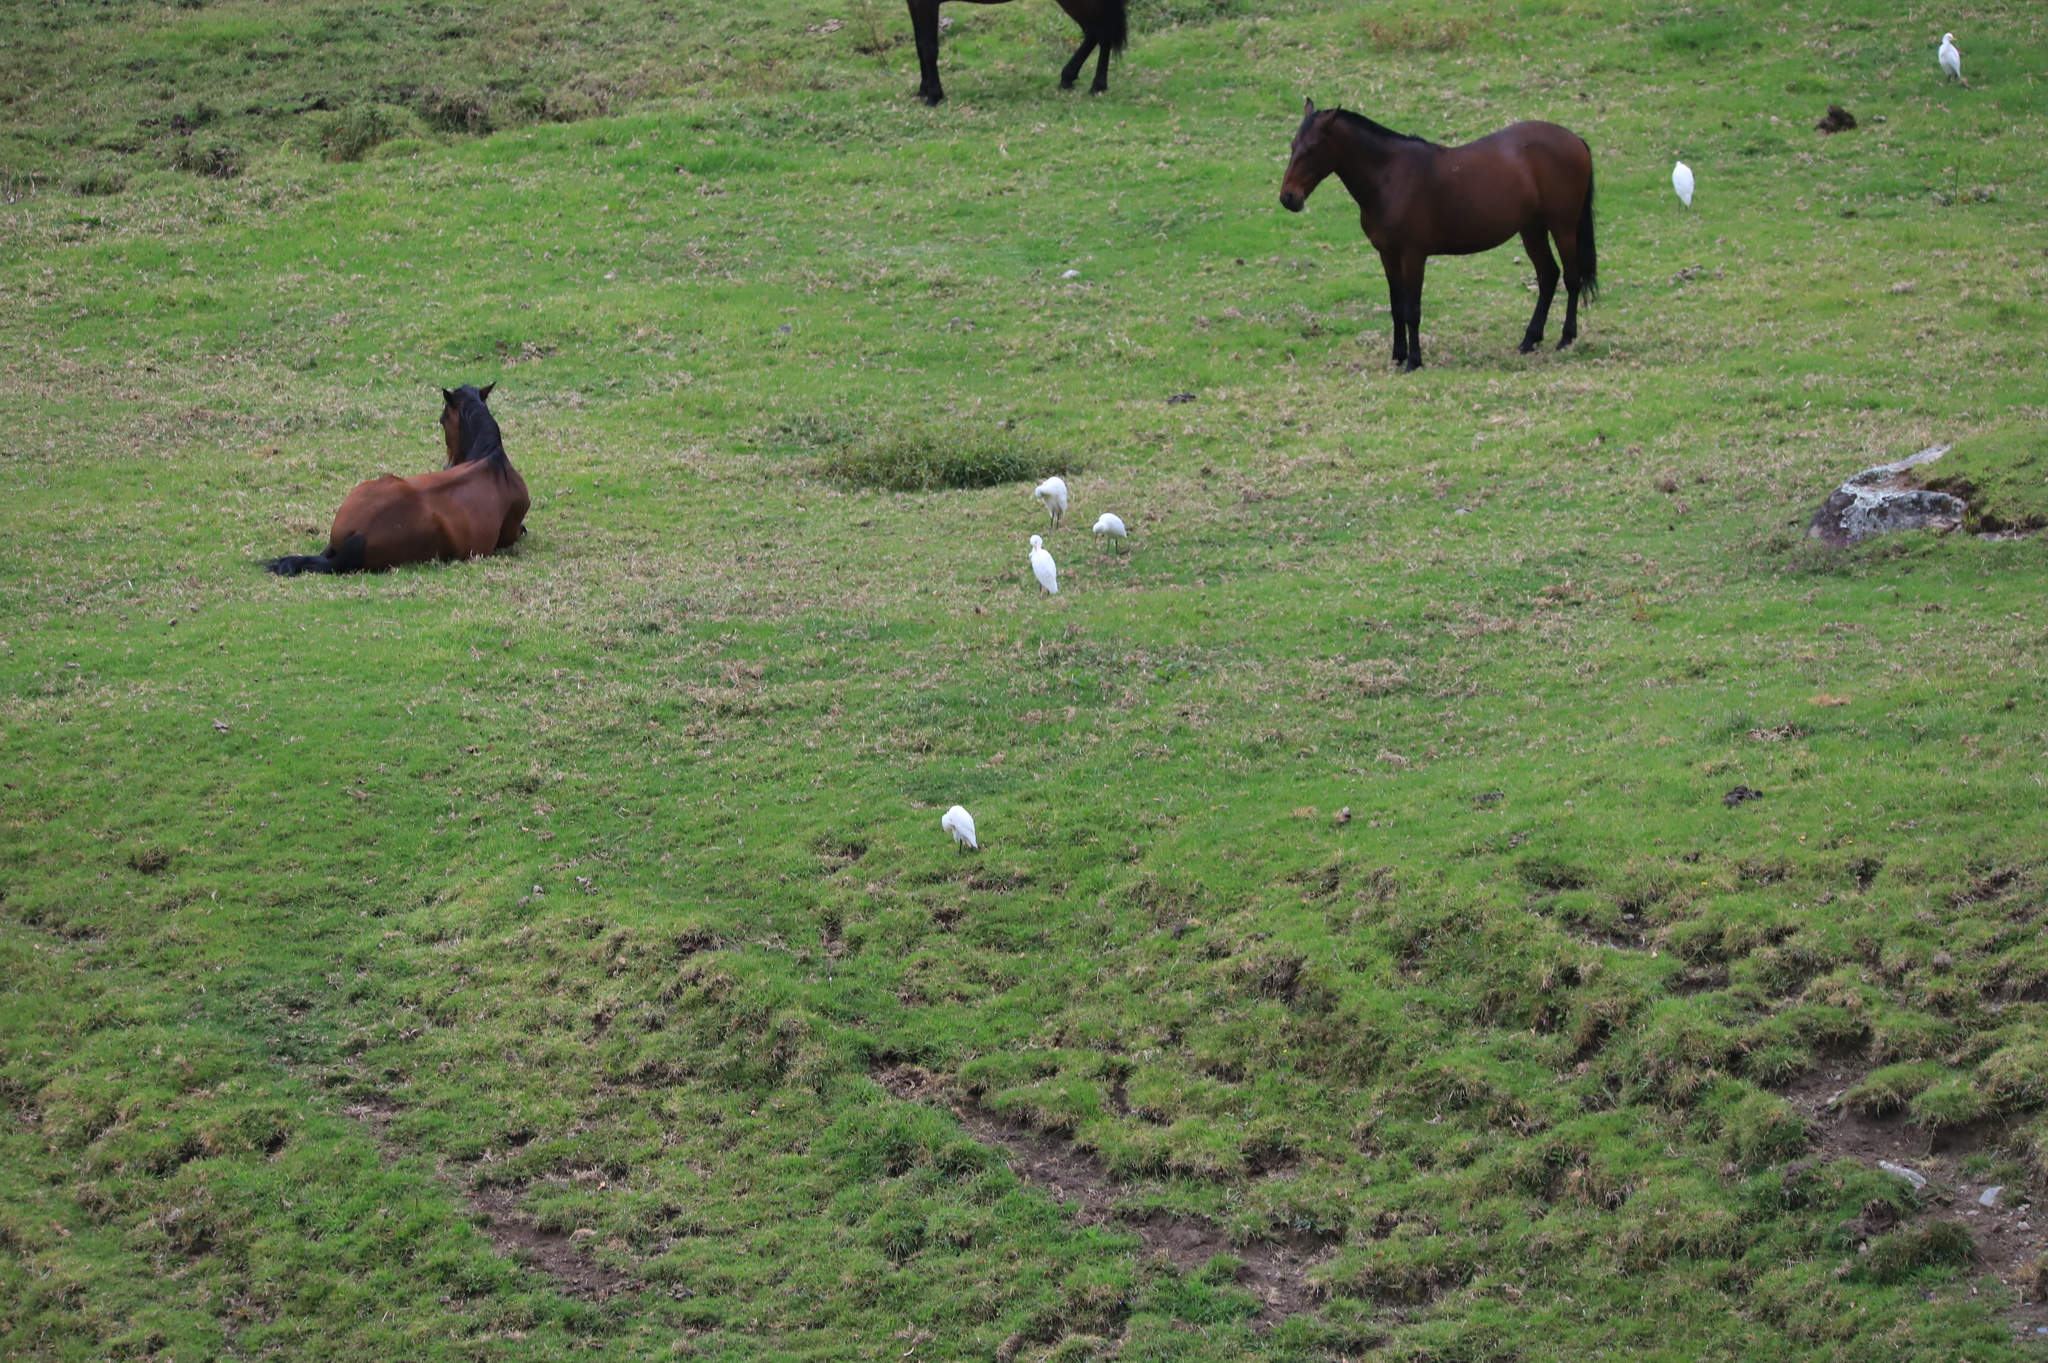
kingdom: Animalia
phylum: Chordata
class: Aves
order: Pelecaniformes
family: Ardeidae
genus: Bubulcus
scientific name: Bubulcus ibis
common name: Cattle egret
